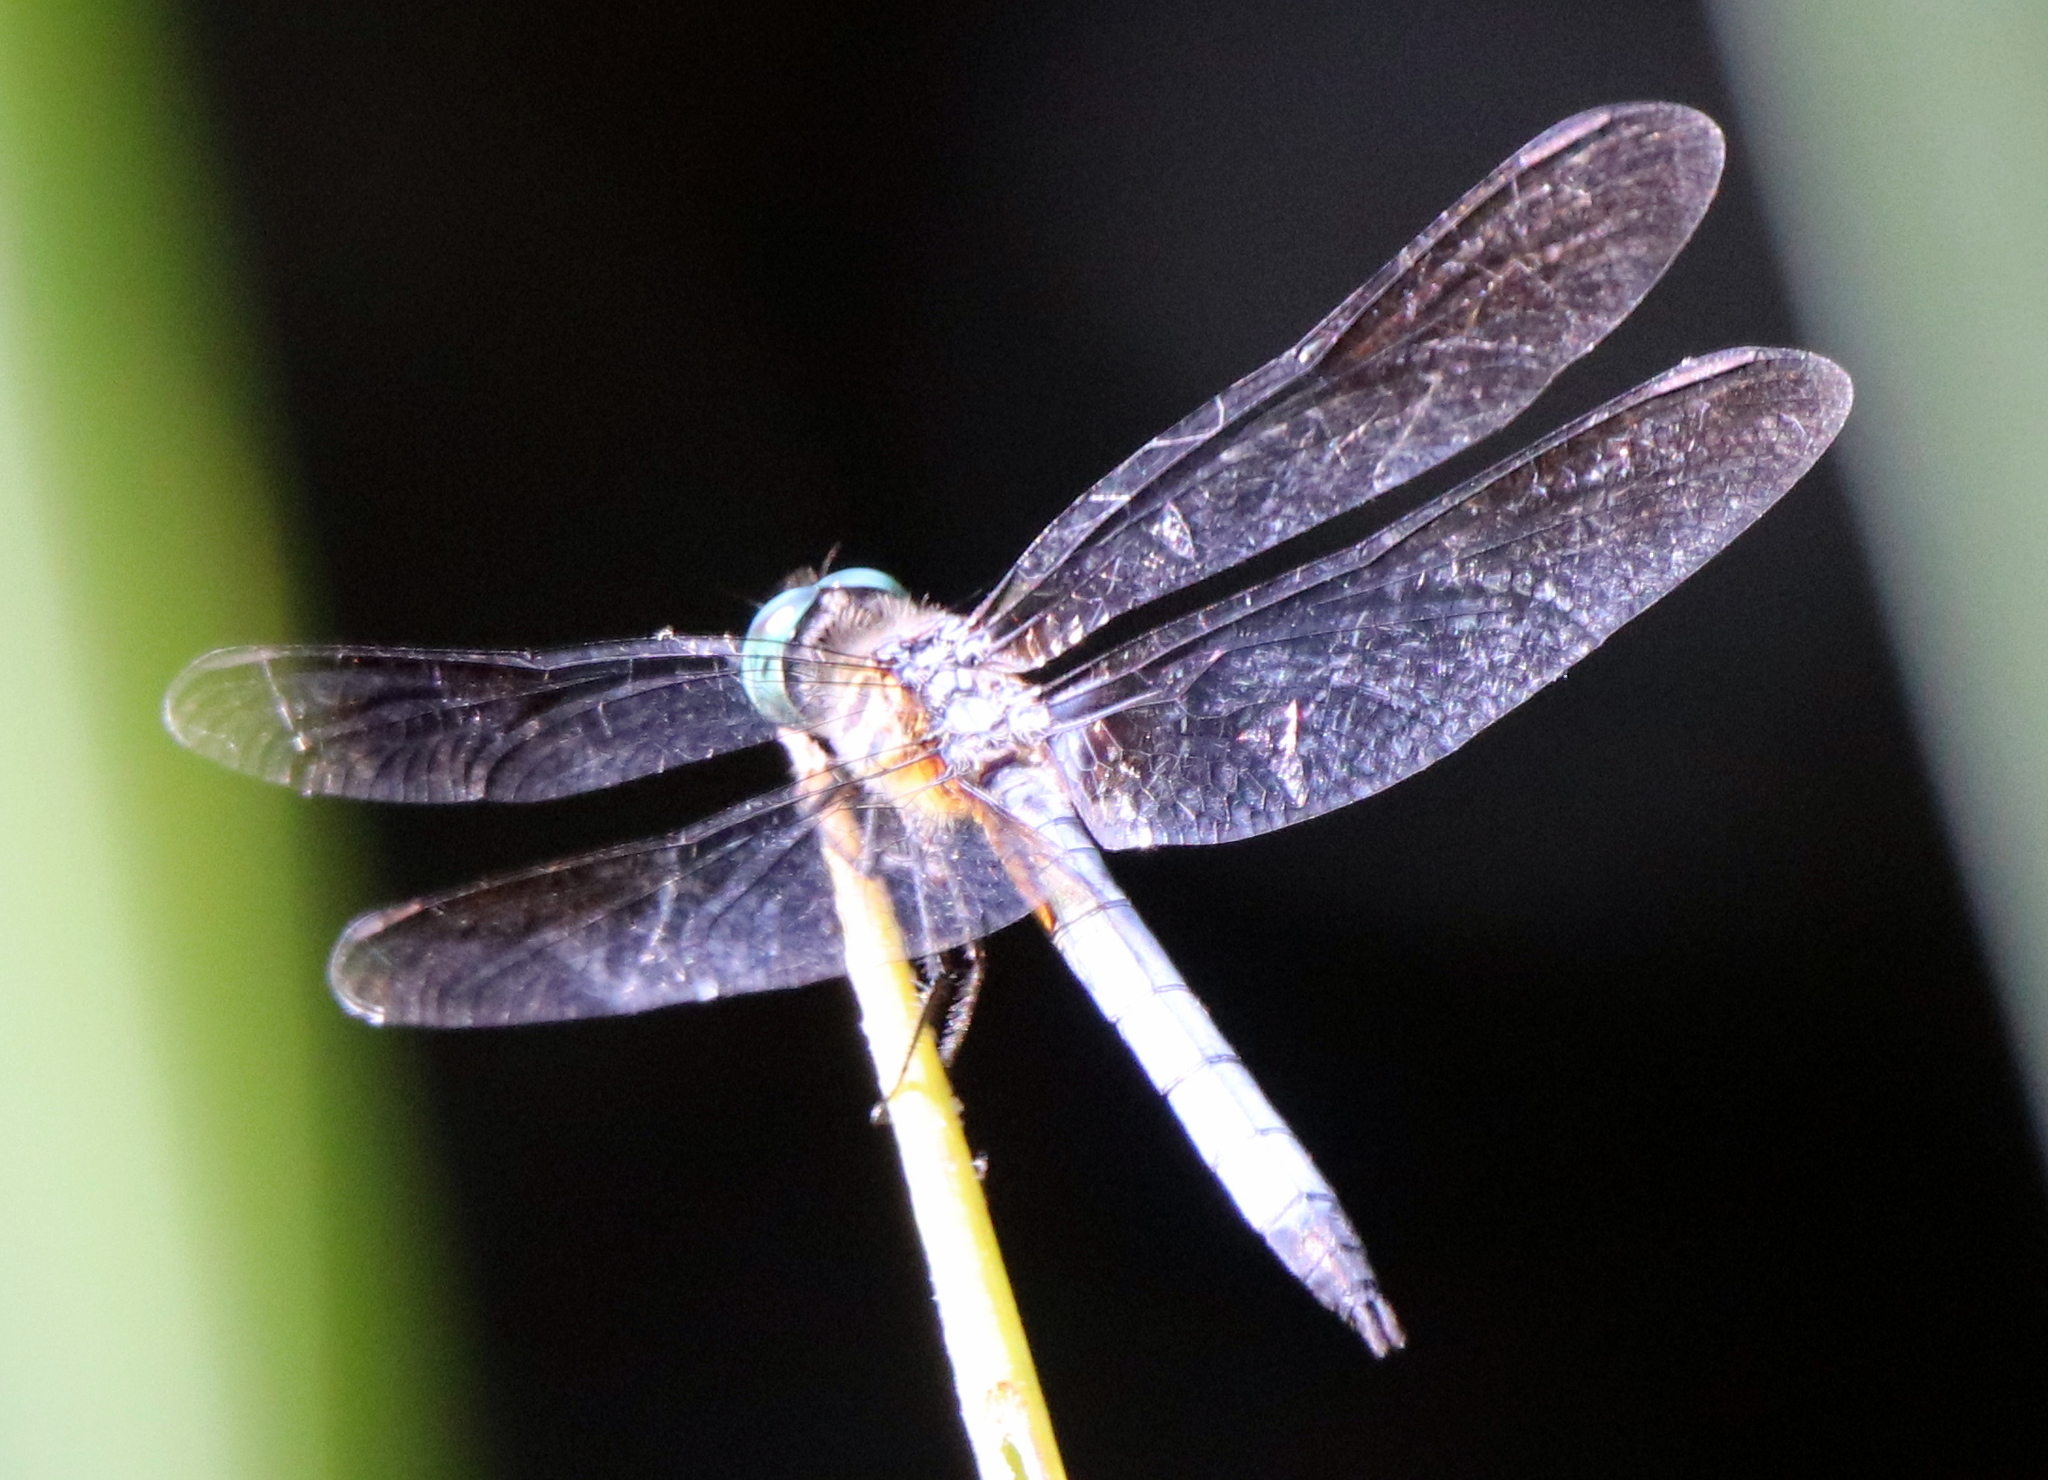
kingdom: Animalia
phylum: Arthropoda
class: Insecta
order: Odonata
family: Libellulidae
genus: Pachydiplax
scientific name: Pachydiplax longipennis
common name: Blue dasher
